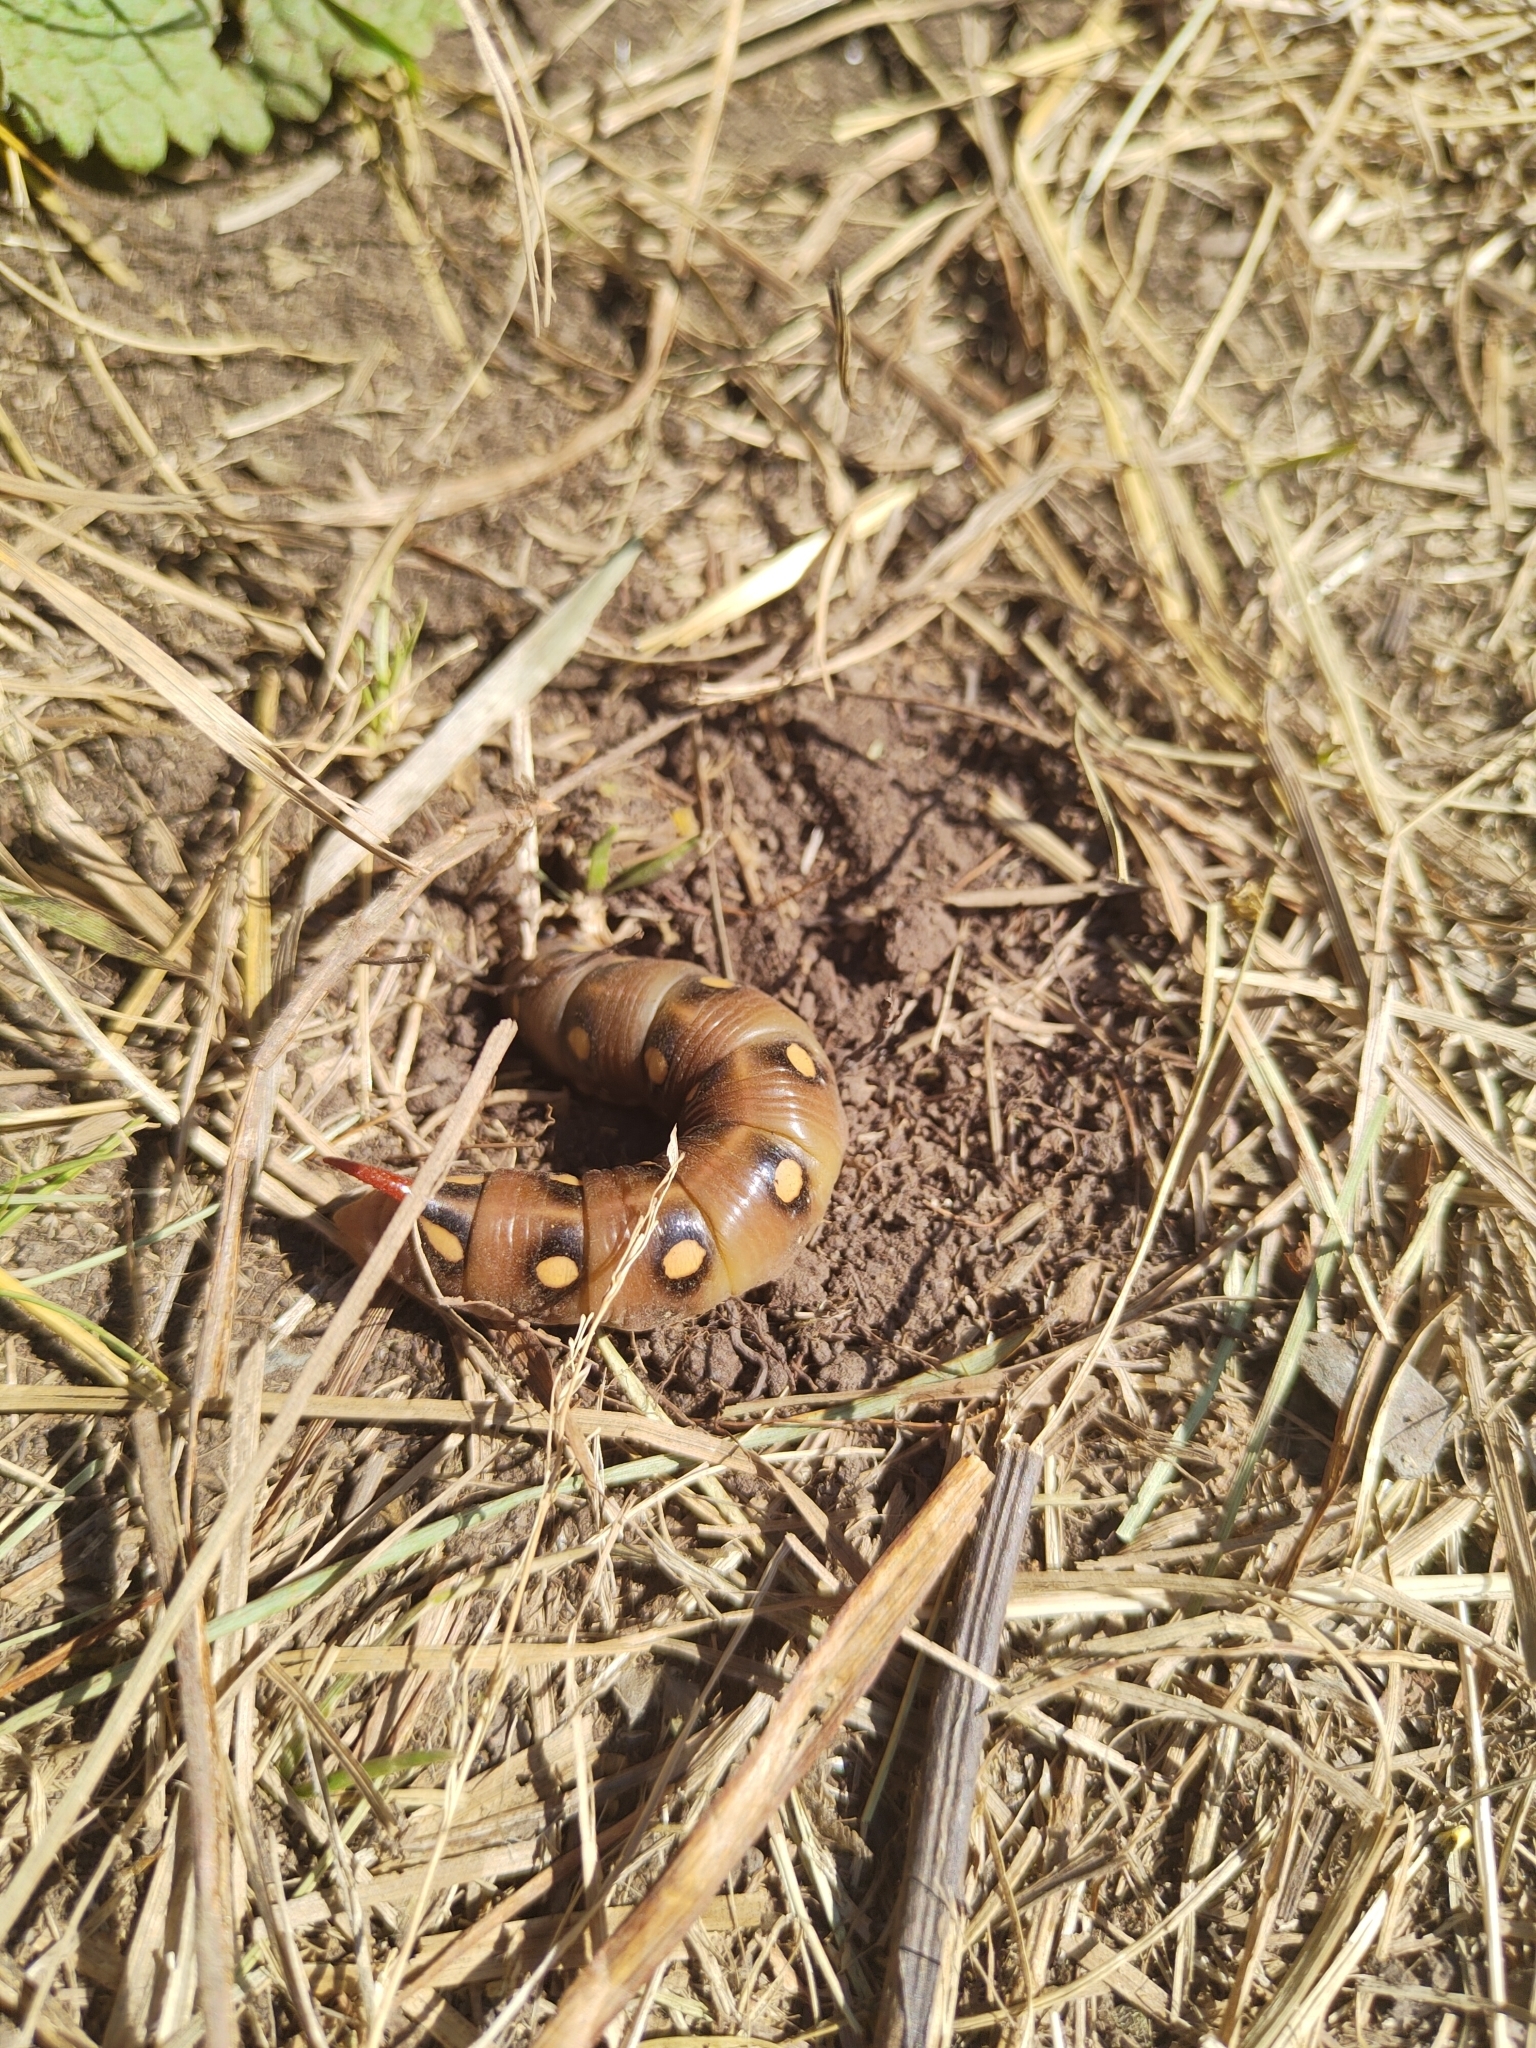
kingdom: Animalia
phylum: Arthropoda
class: Insecta
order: Lepidoptera
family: Sphingidae
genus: Hyles
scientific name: Hyles gallii
